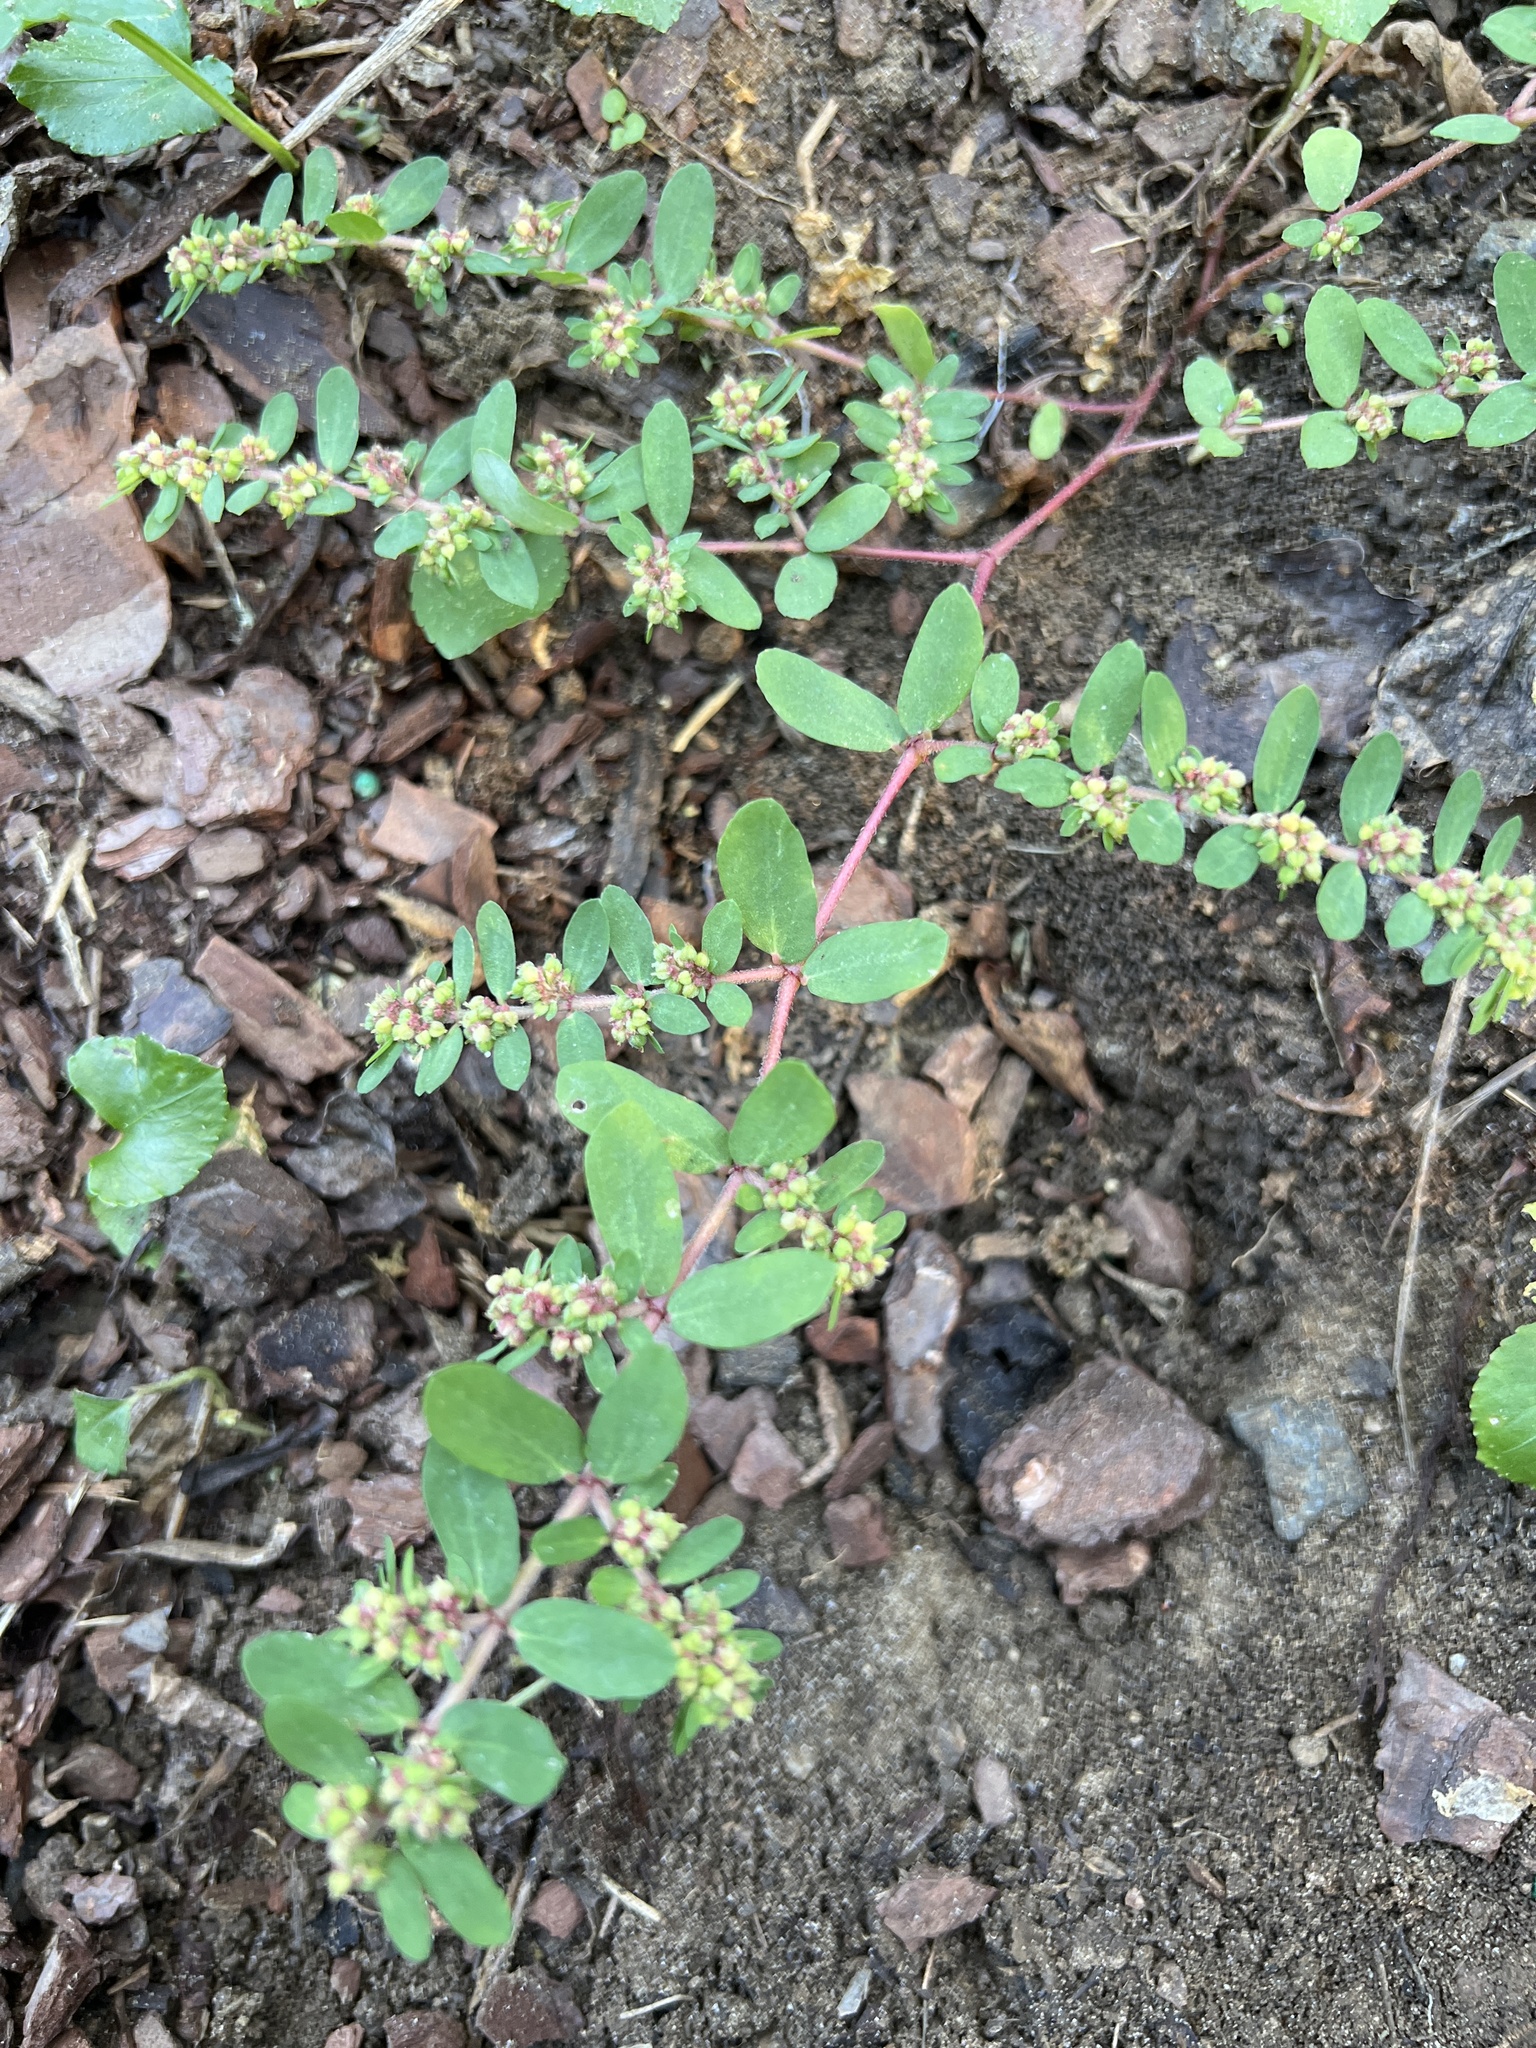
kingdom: Plantae
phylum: Tracheophyta
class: Magnoliopsida
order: Malpighiales
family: Euphorbiaceae
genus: Euphorbia
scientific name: Euphorbia humistrata
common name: Hairy spreading spurge
